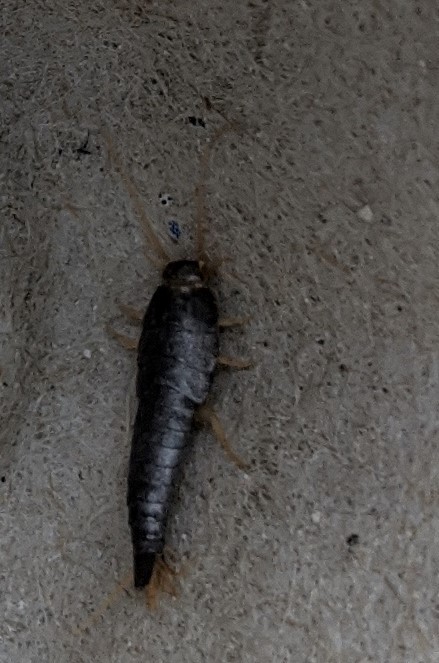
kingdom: Animalia
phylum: Arthropoda
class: Insecta
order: Zygentoma
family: Lepismatidae
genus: Lepisma
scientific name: Lepisma saccharinum
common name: Silverfish
